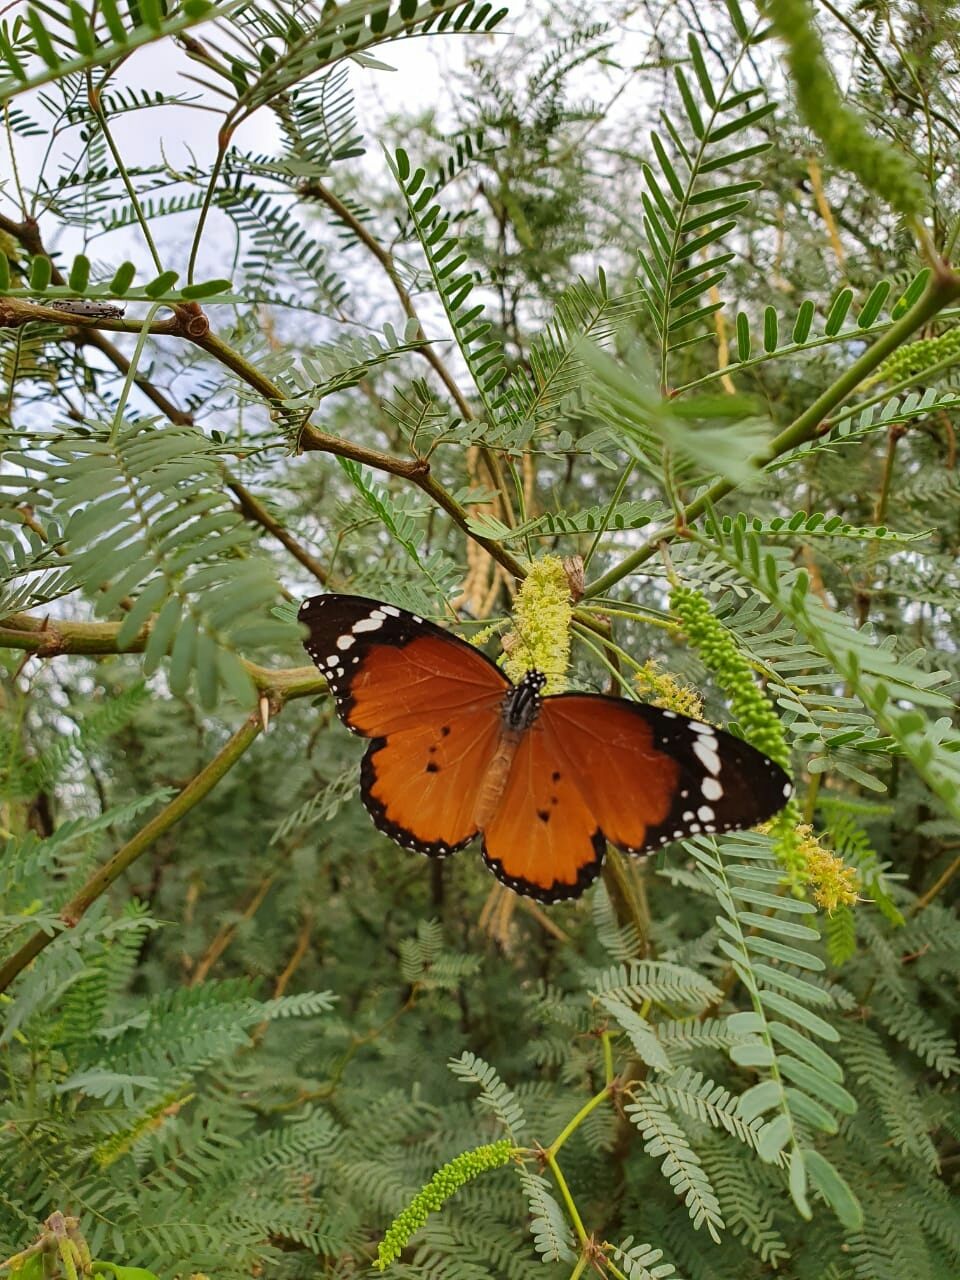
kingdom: Animalia
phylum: Arthropoda
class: Insecta
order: Lepidoptera
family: Nymphalidae
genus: Danaus
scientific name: Danaus chrysippus
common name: Plain tiger
